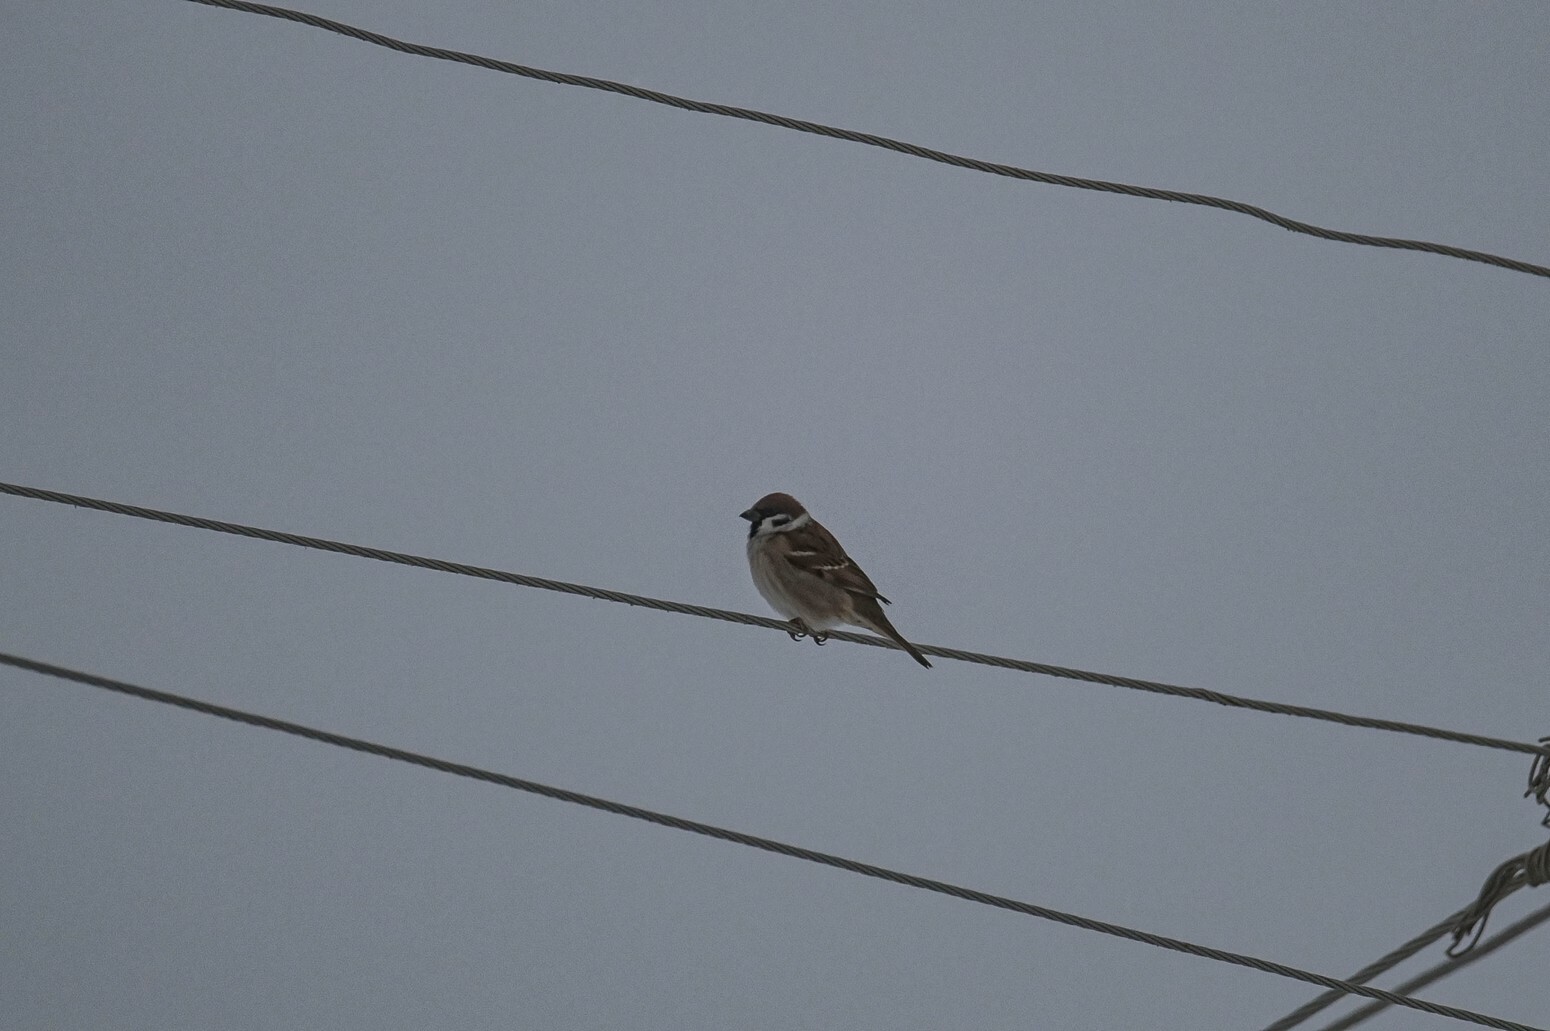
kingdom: Animalia
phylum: Chordata
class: Aves
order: Passeriformes
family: Passeridae
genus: Passer
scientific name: Passer montanus
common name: Eurasian tree sparrow
